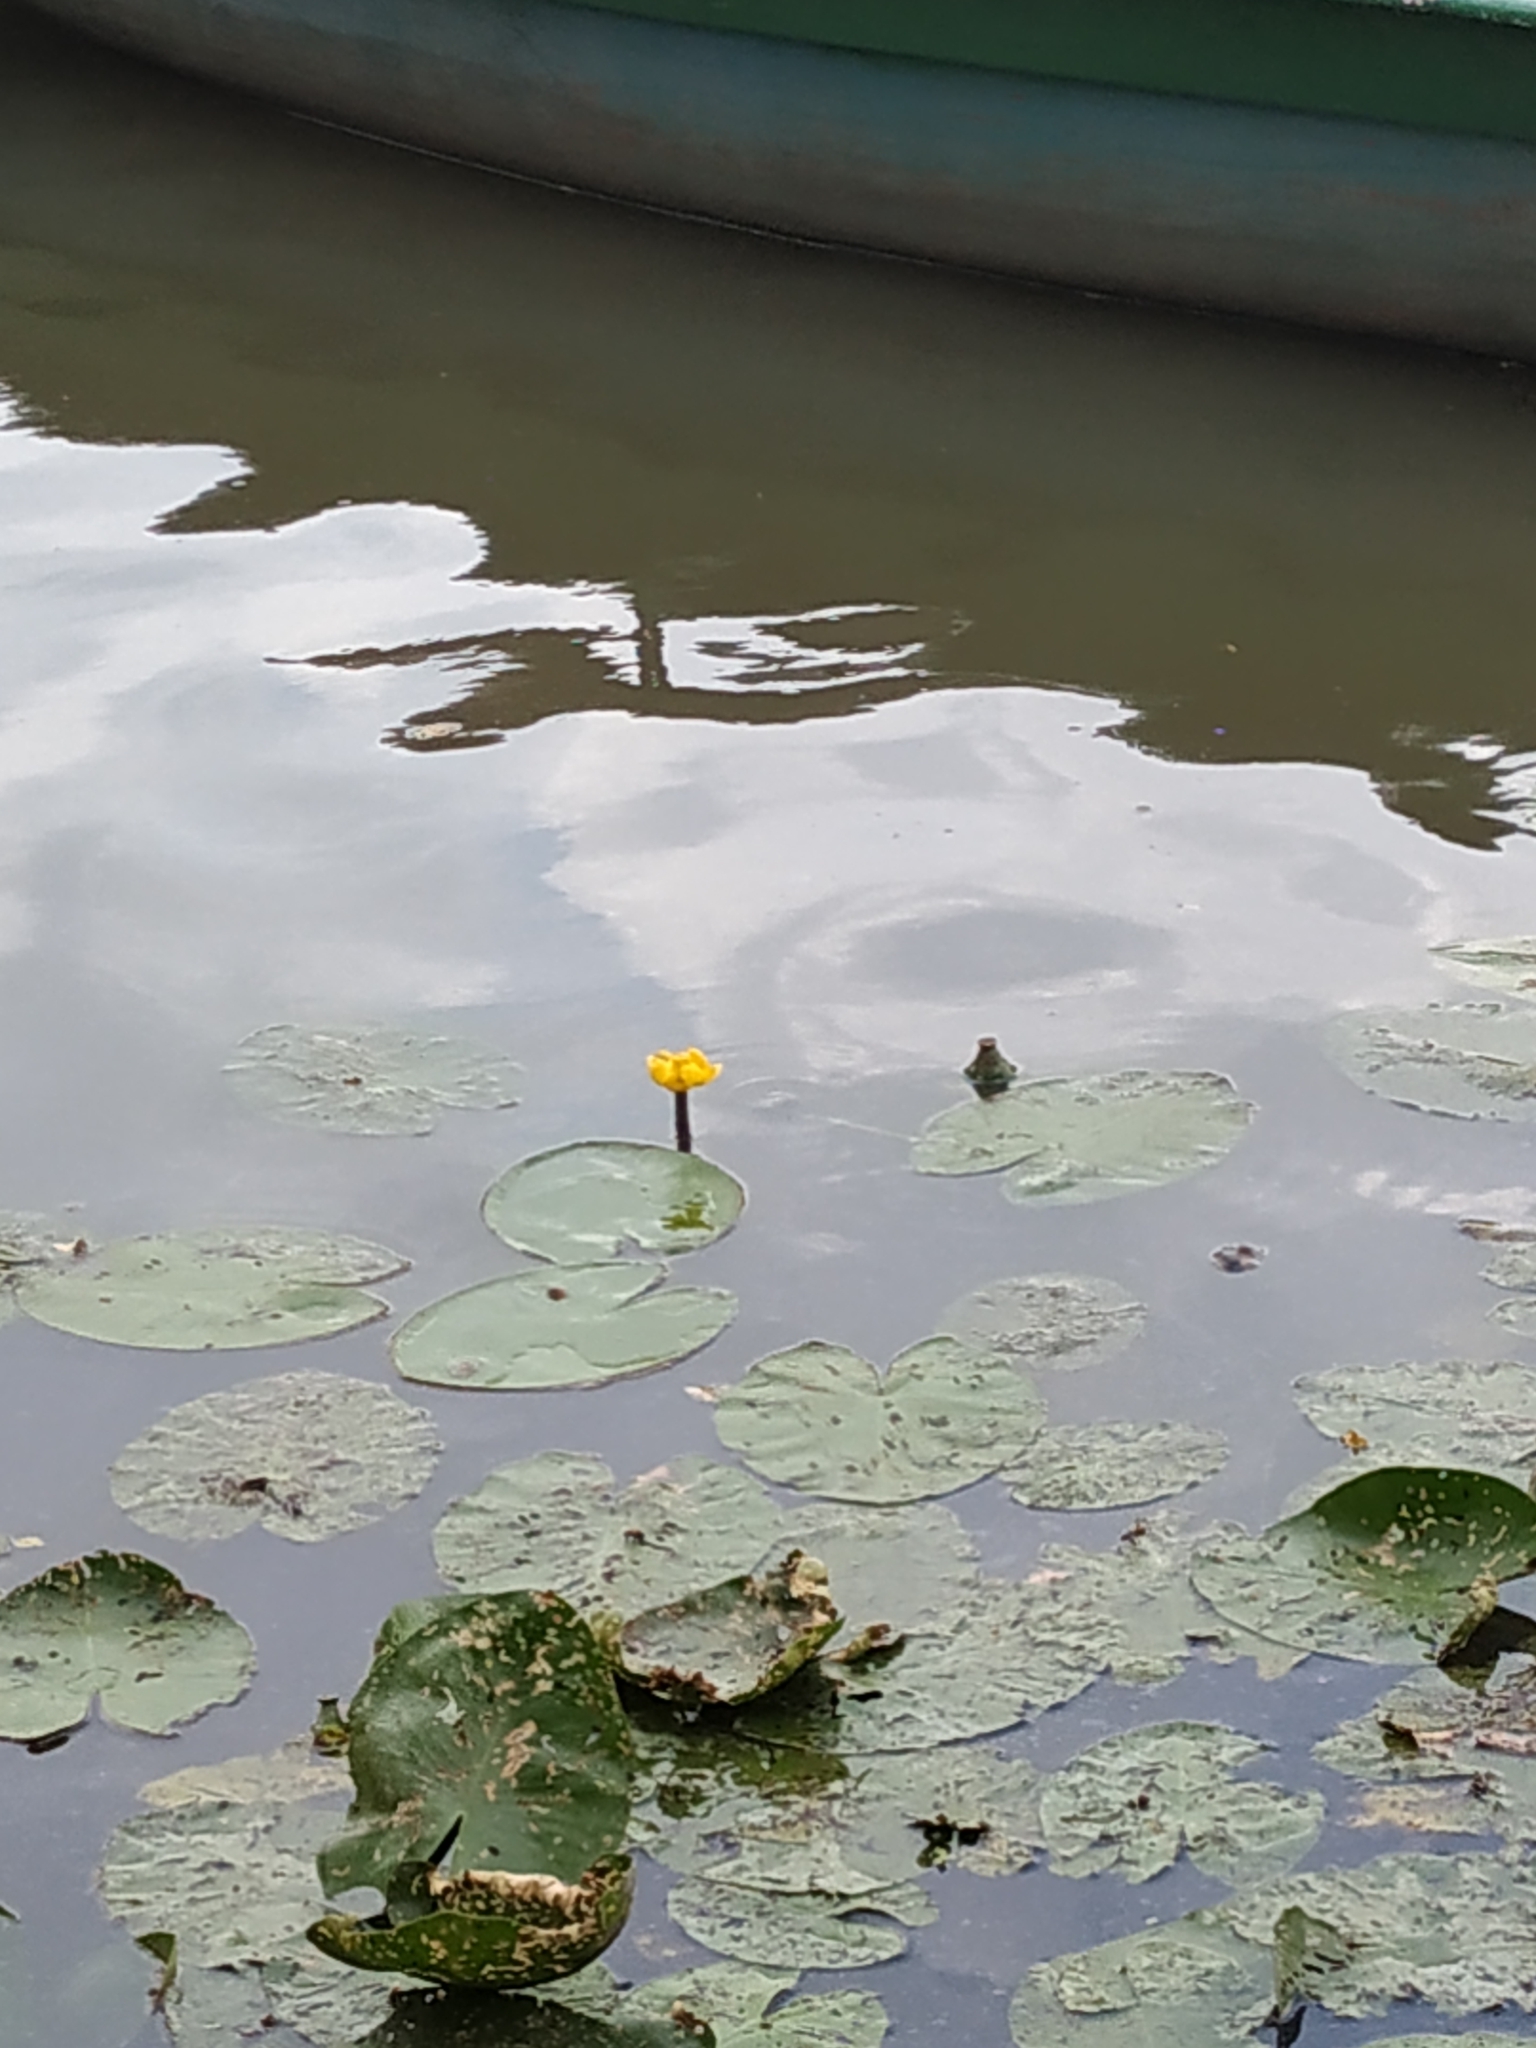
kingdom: Plantae
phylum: Tracheophyta
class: Magnoliopsida
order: Nymphaeales
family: Nymphaeaceae
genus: Nuphar
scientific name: Nuphar lutea
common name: Yellow water-lily
